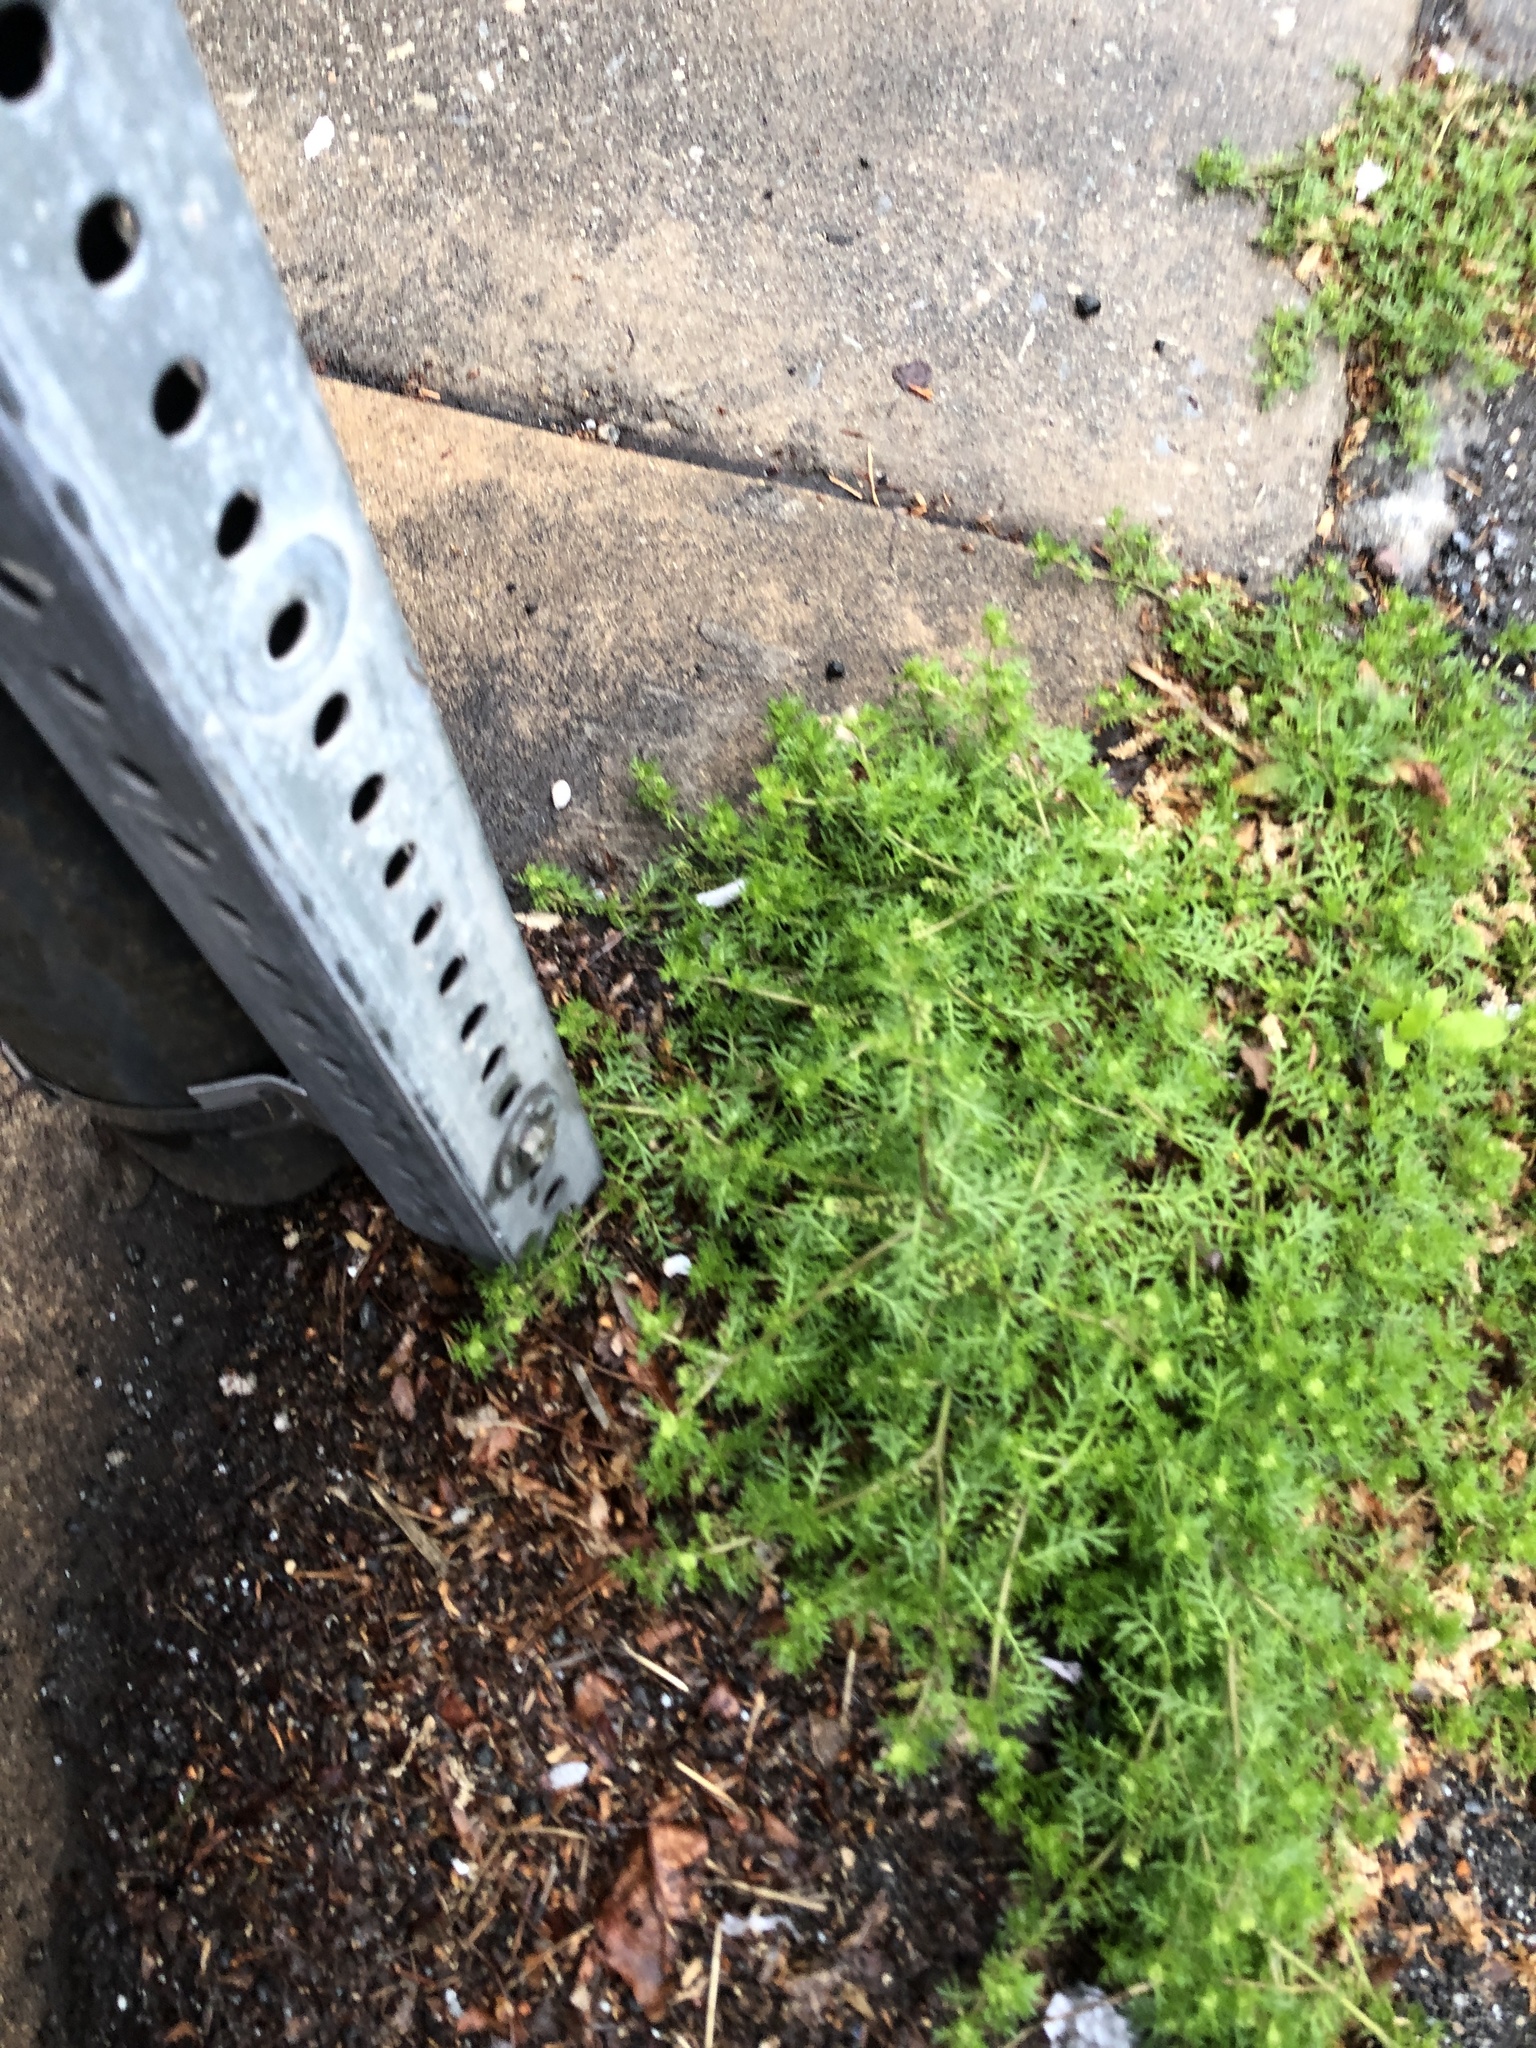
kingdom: Plantae
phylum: Tracheophyta
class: Magnoliopsida
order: Brassicales
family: Brassicaceae
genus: Lepidium
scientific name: Lepidium didymum
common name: Lesser swinecress
